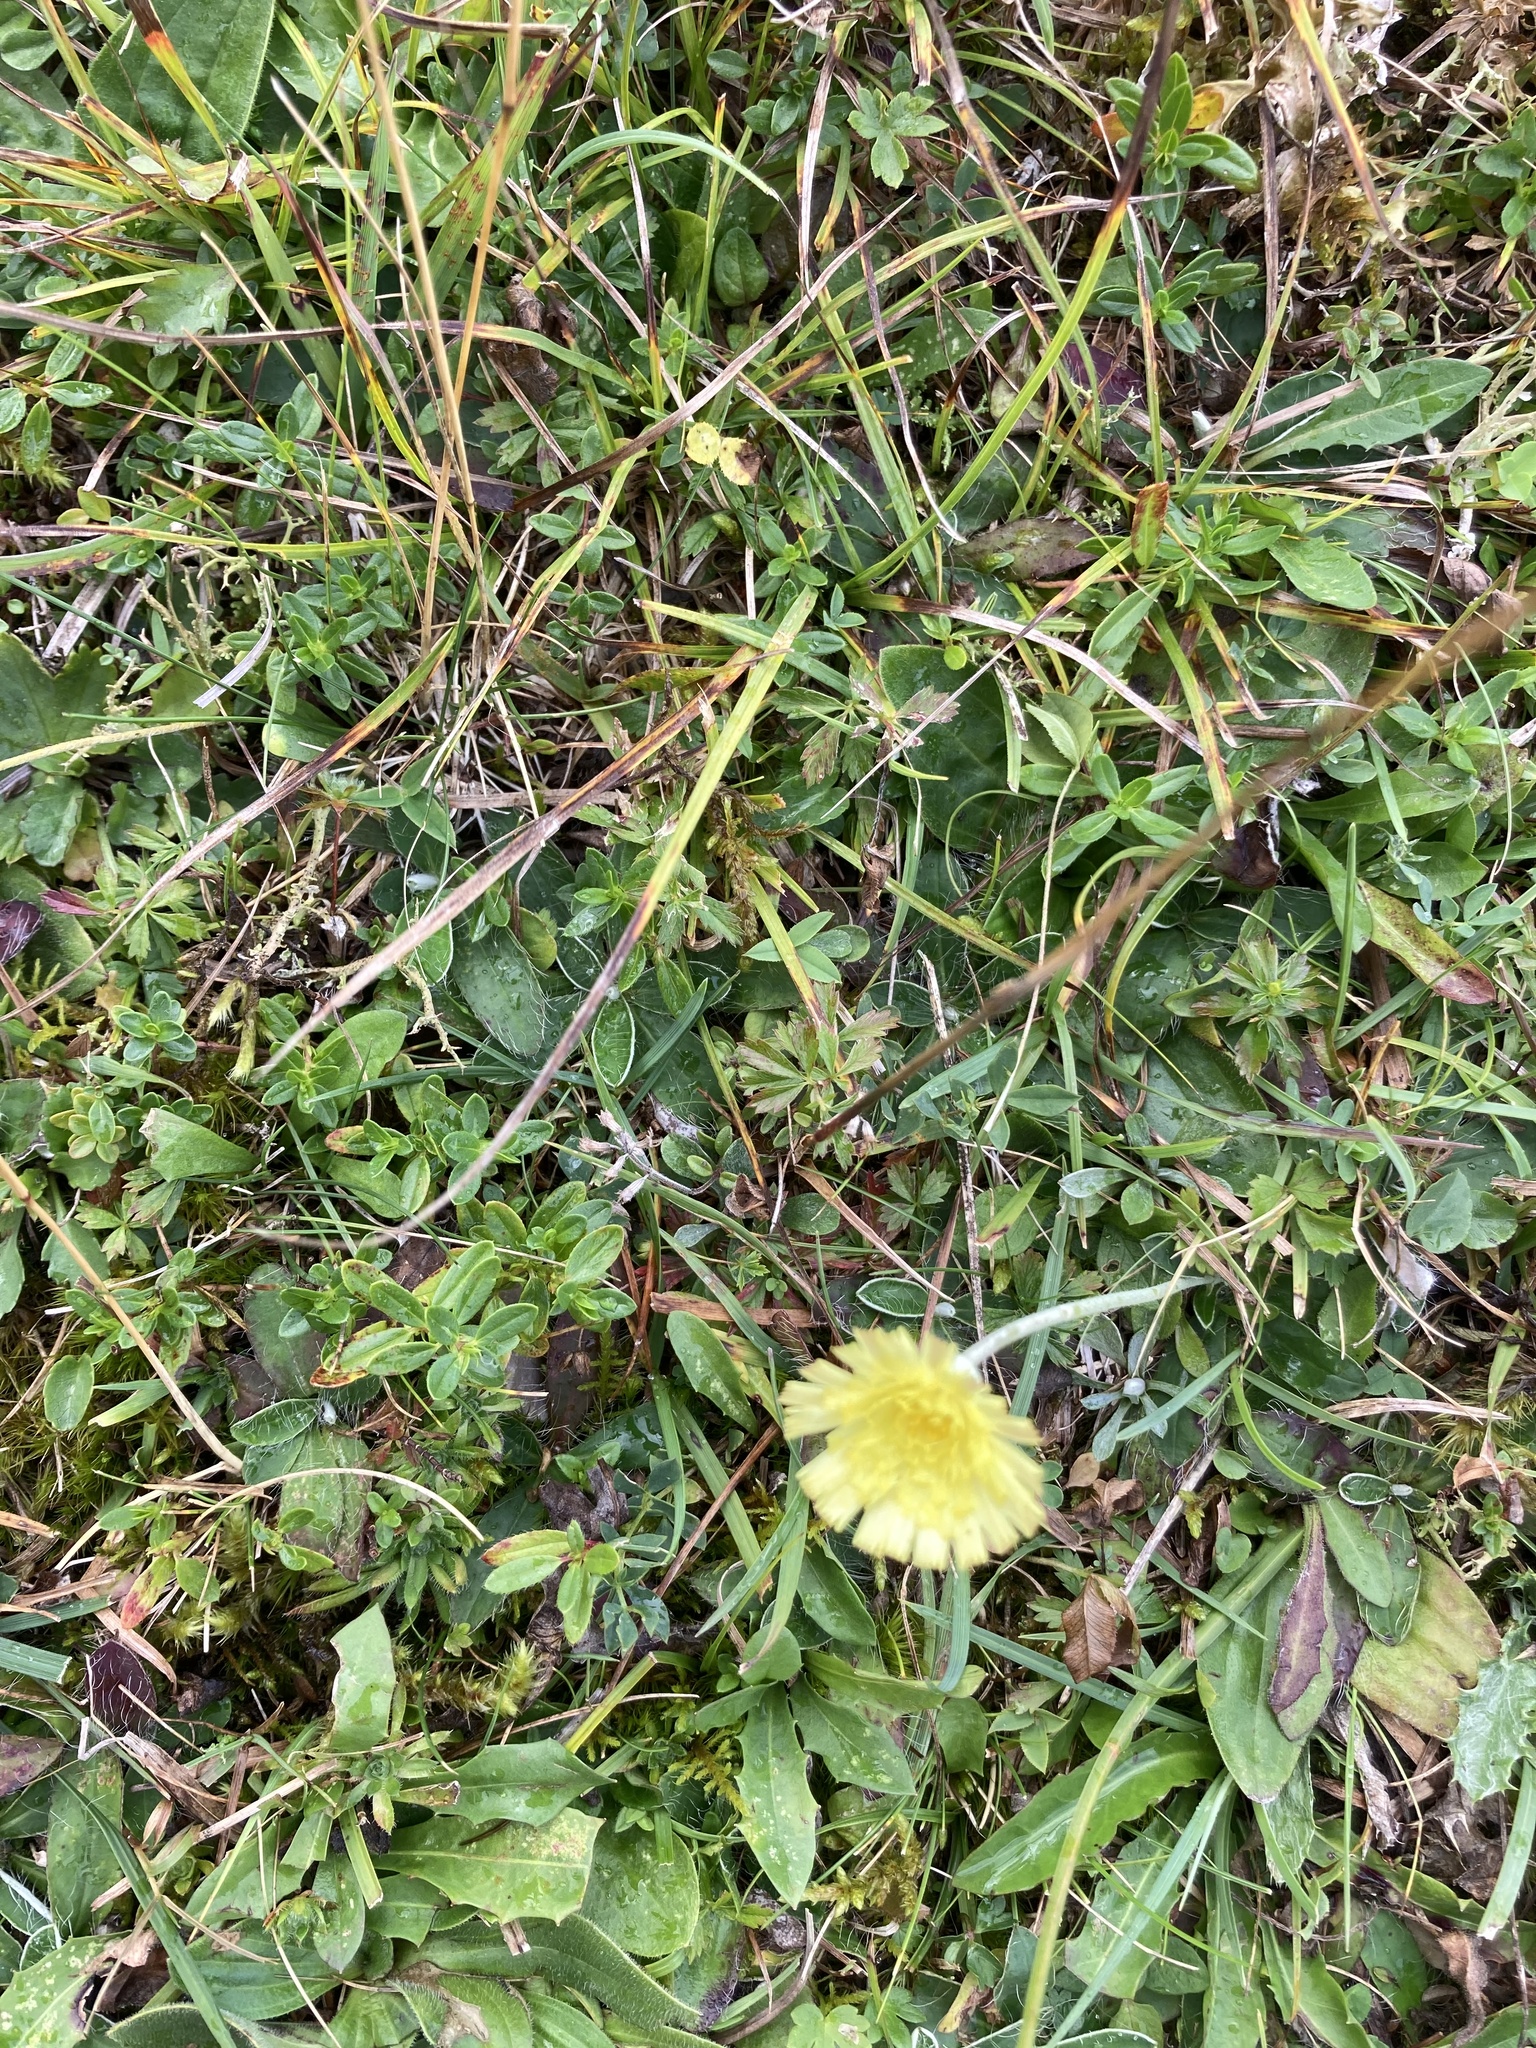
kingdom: Plantae
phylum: Tracheophyta
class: Magnoliopsida
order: Asterales
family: Asteraceae
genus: Pilosella
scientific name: Pilosella officinarum
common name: Mouse-ear hawkweed
